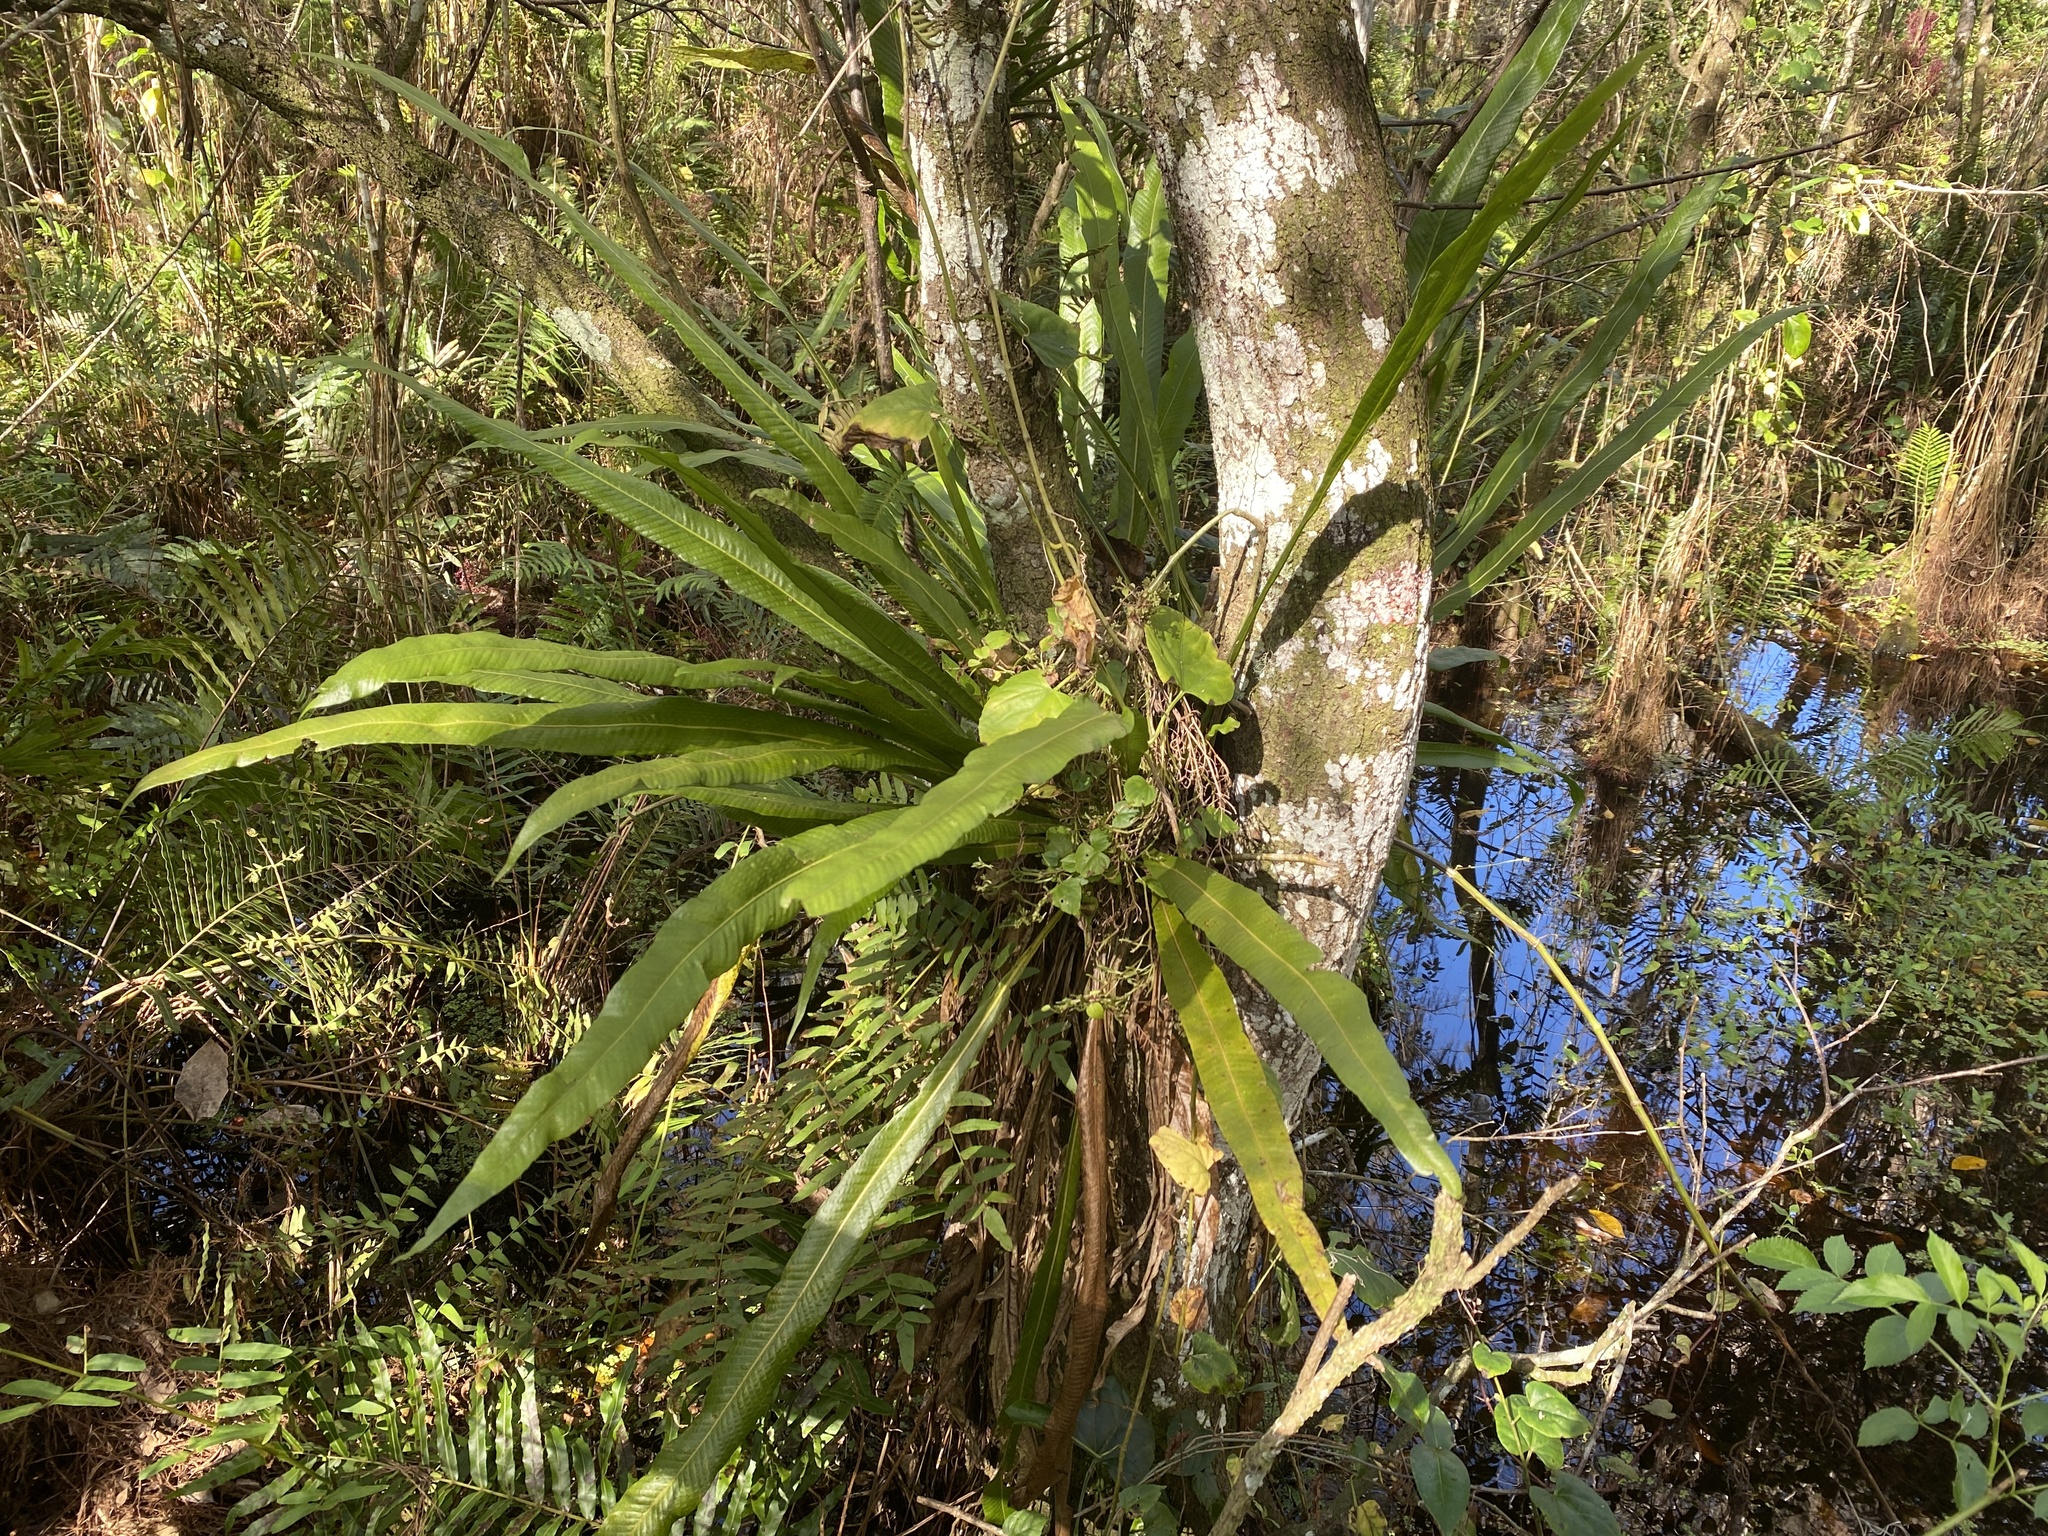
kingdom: Plantae
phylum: Tracheophyta
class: Polypodiopsida
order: Polypodiales
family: Polypodiaceae
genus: Campyloneurum
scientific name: Campyloneurum phyllitidis
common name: Cow-tongue fern
